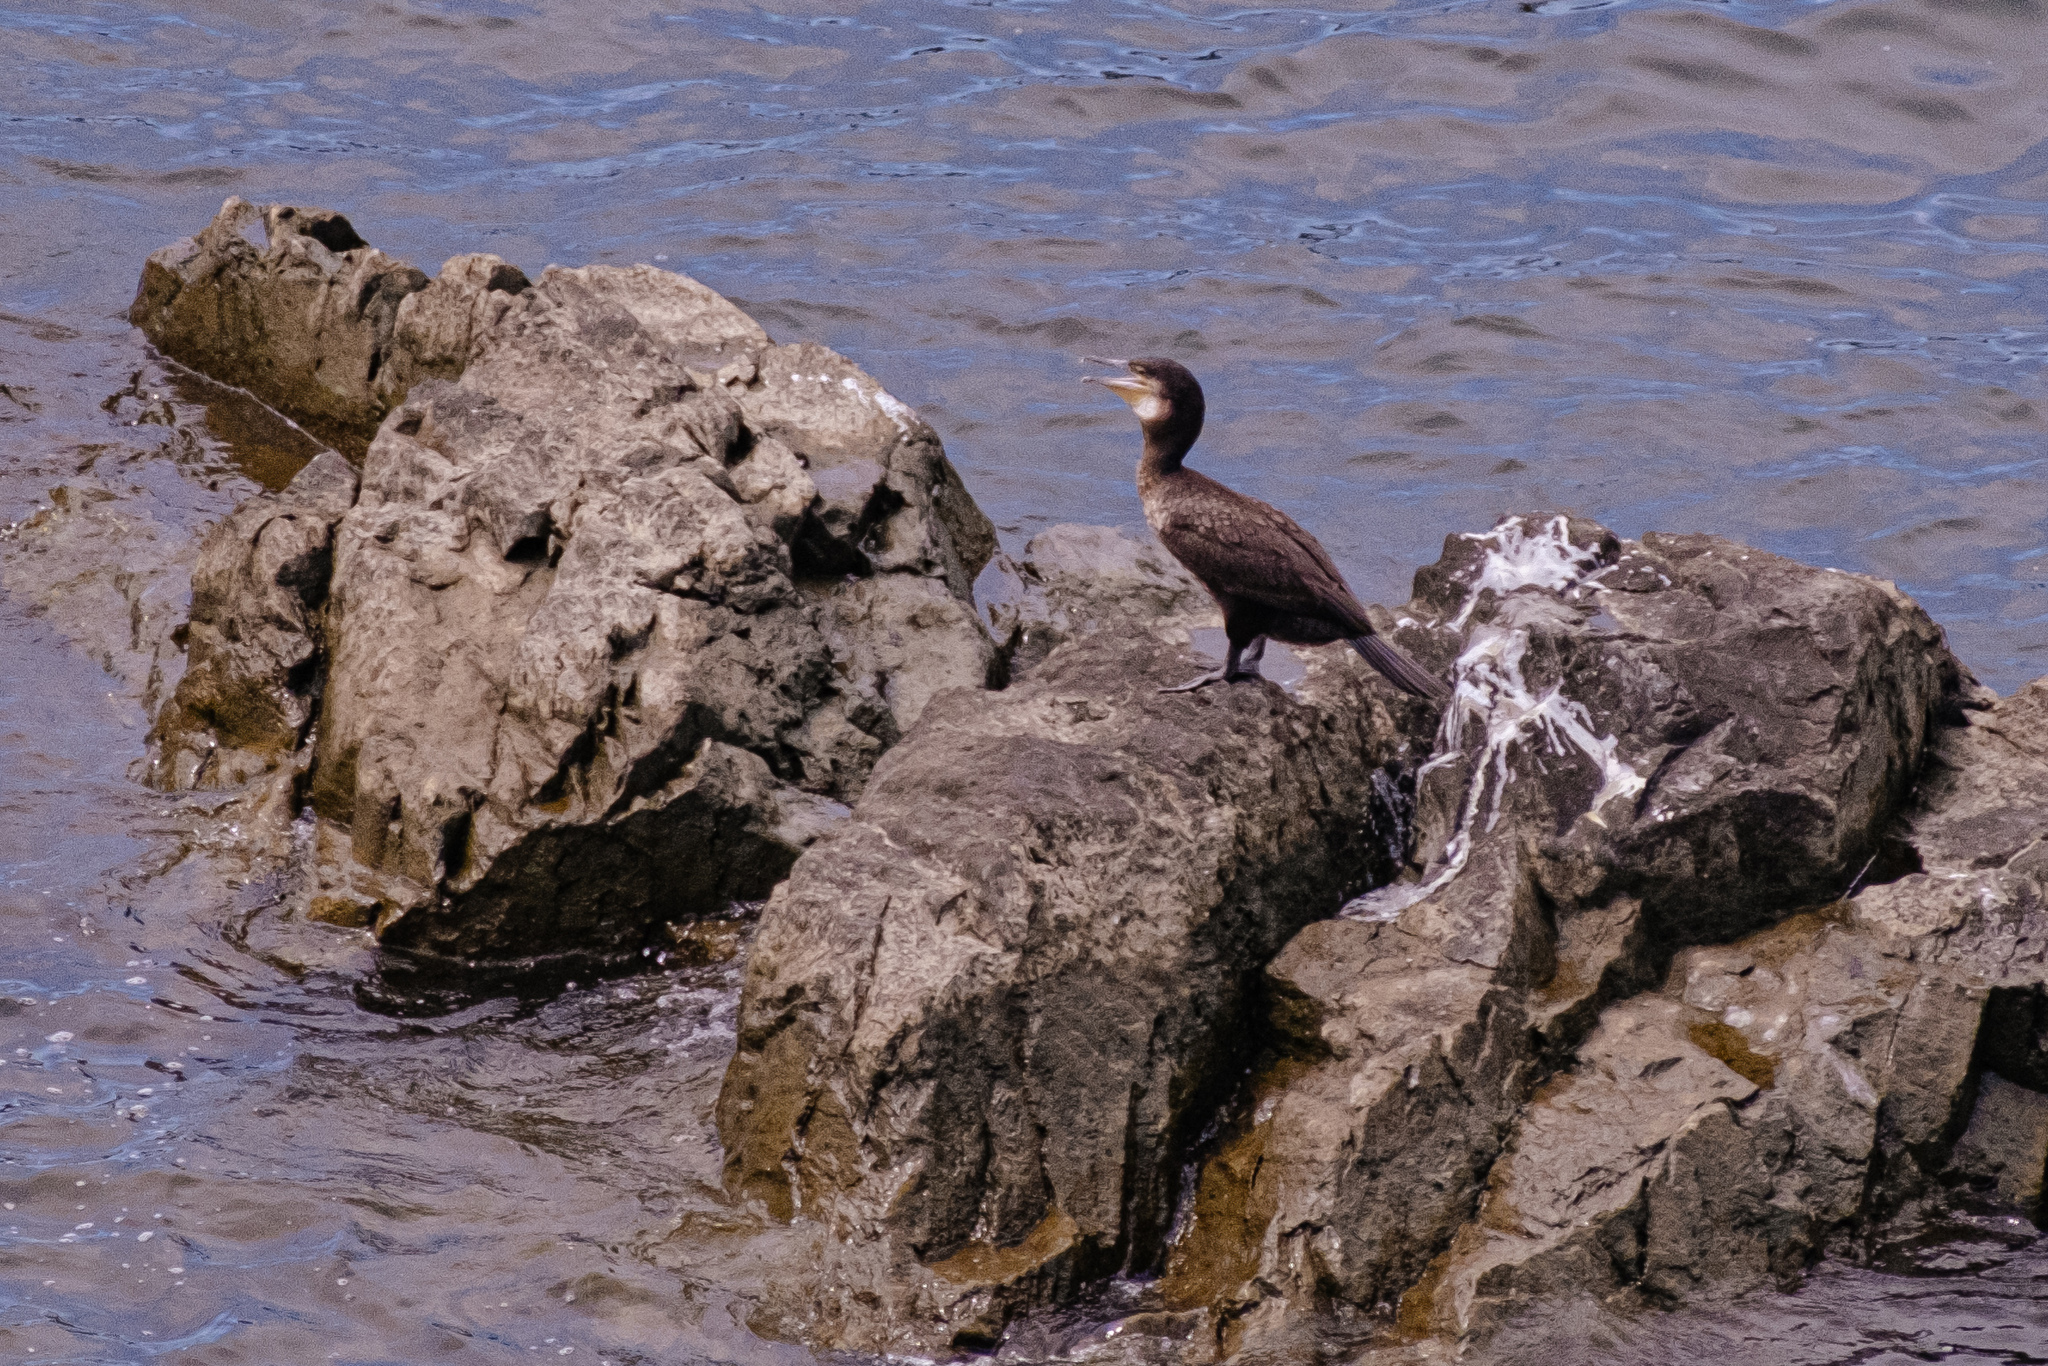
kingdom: Animalia
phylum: Chordata
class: Aves
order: Suliformes
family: Phalacrocoracidae
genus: Phalacrocorax
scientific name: Phalacrocorax carbo
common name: Great cormorant
